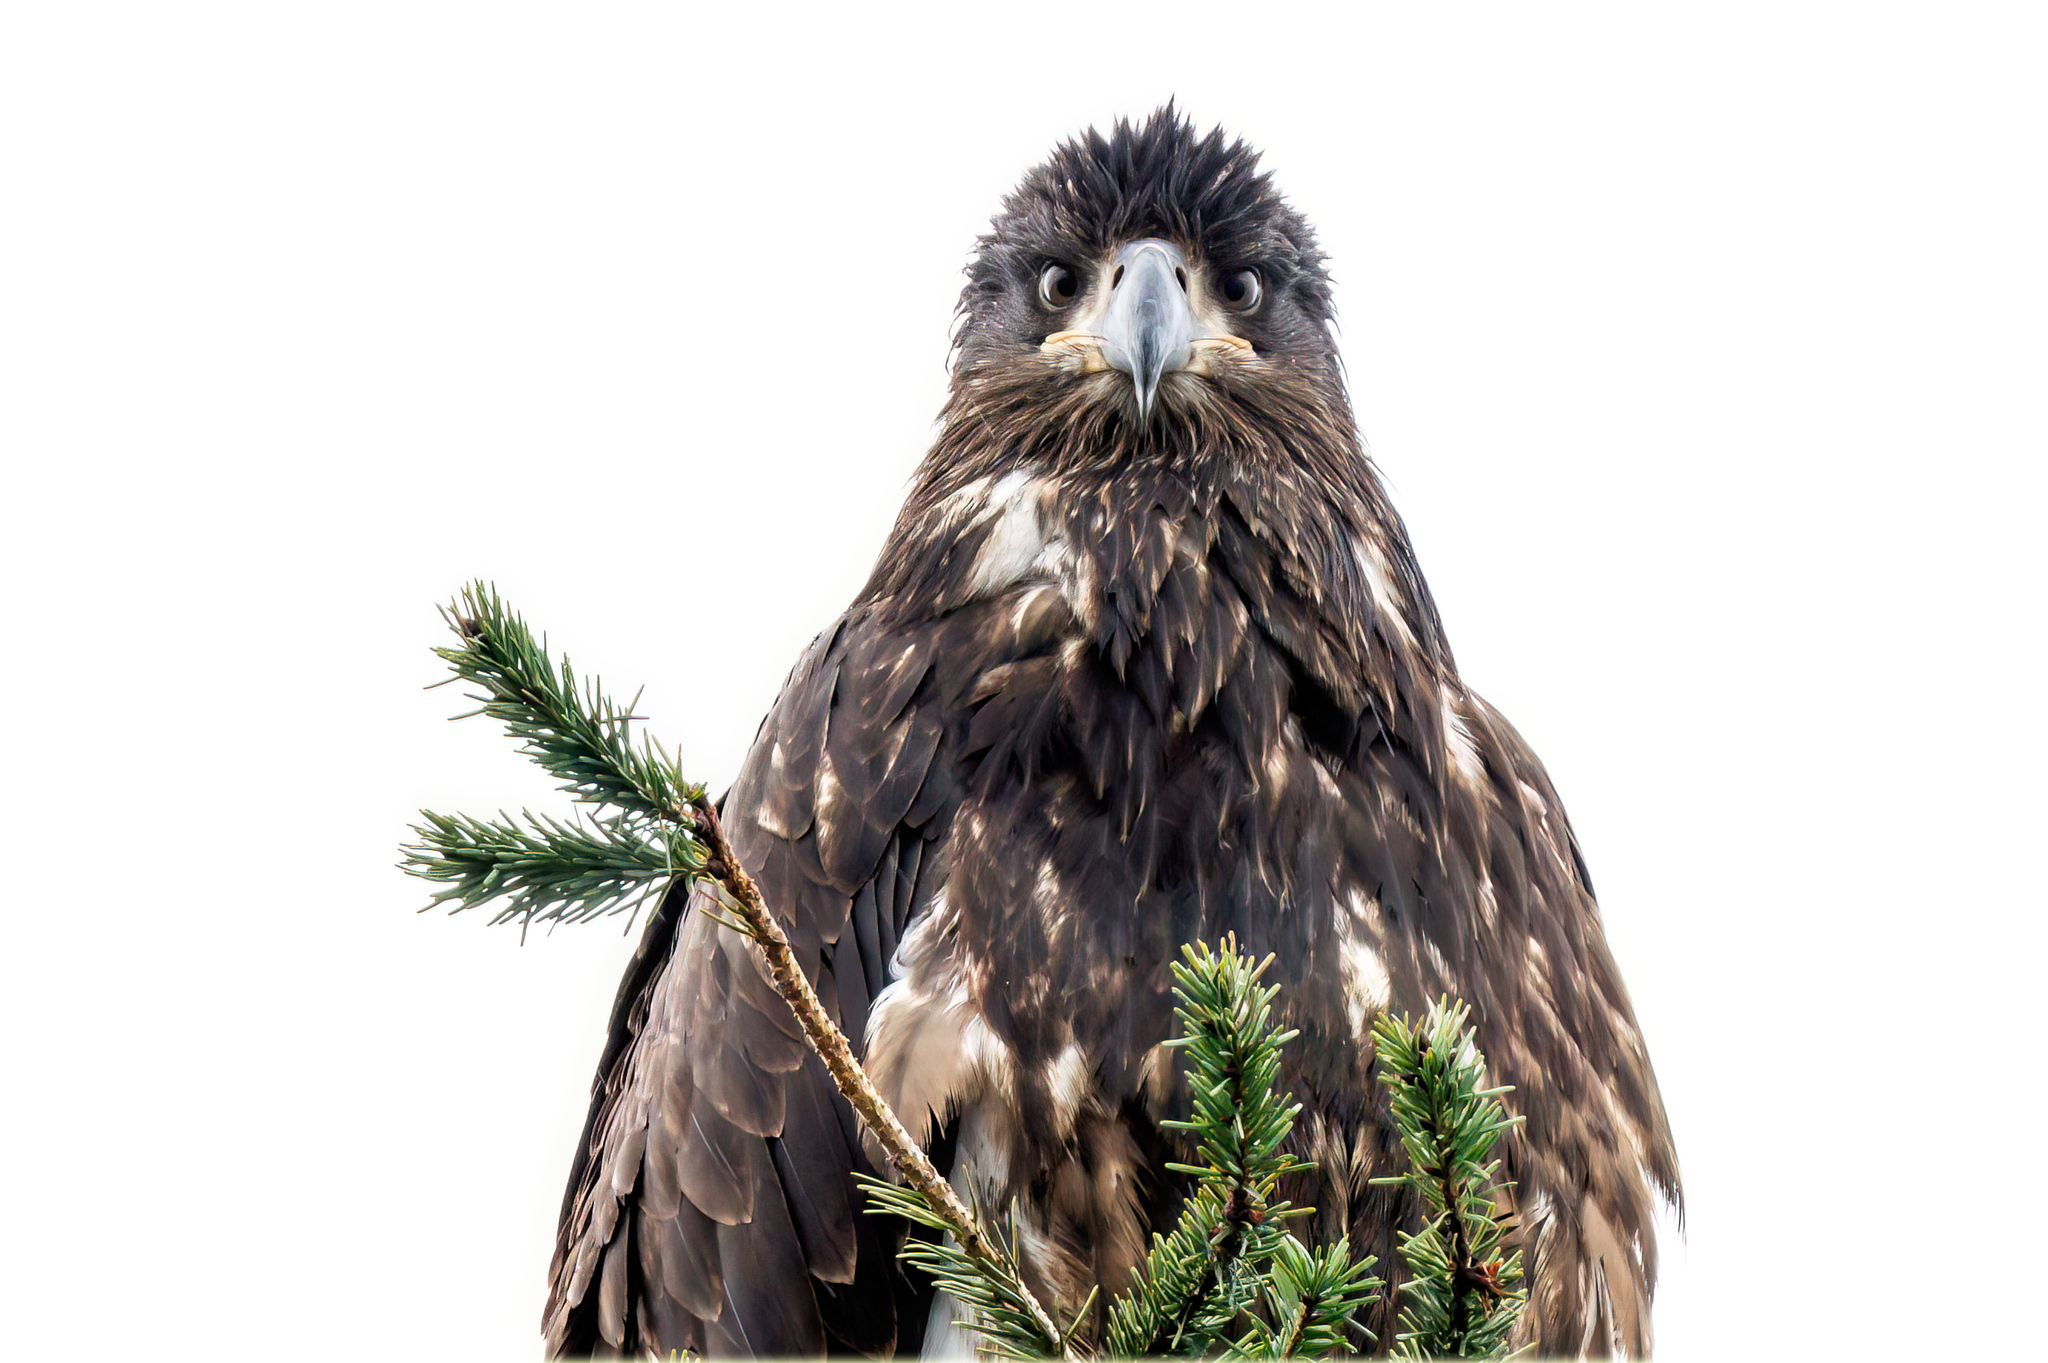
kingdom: Animalia
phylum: Chordata
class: Aves
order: Accipitriformes
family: Accipitridae
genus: Haliaeetus
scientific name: Haliaeetus leucocephalus
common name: Bald eagle
